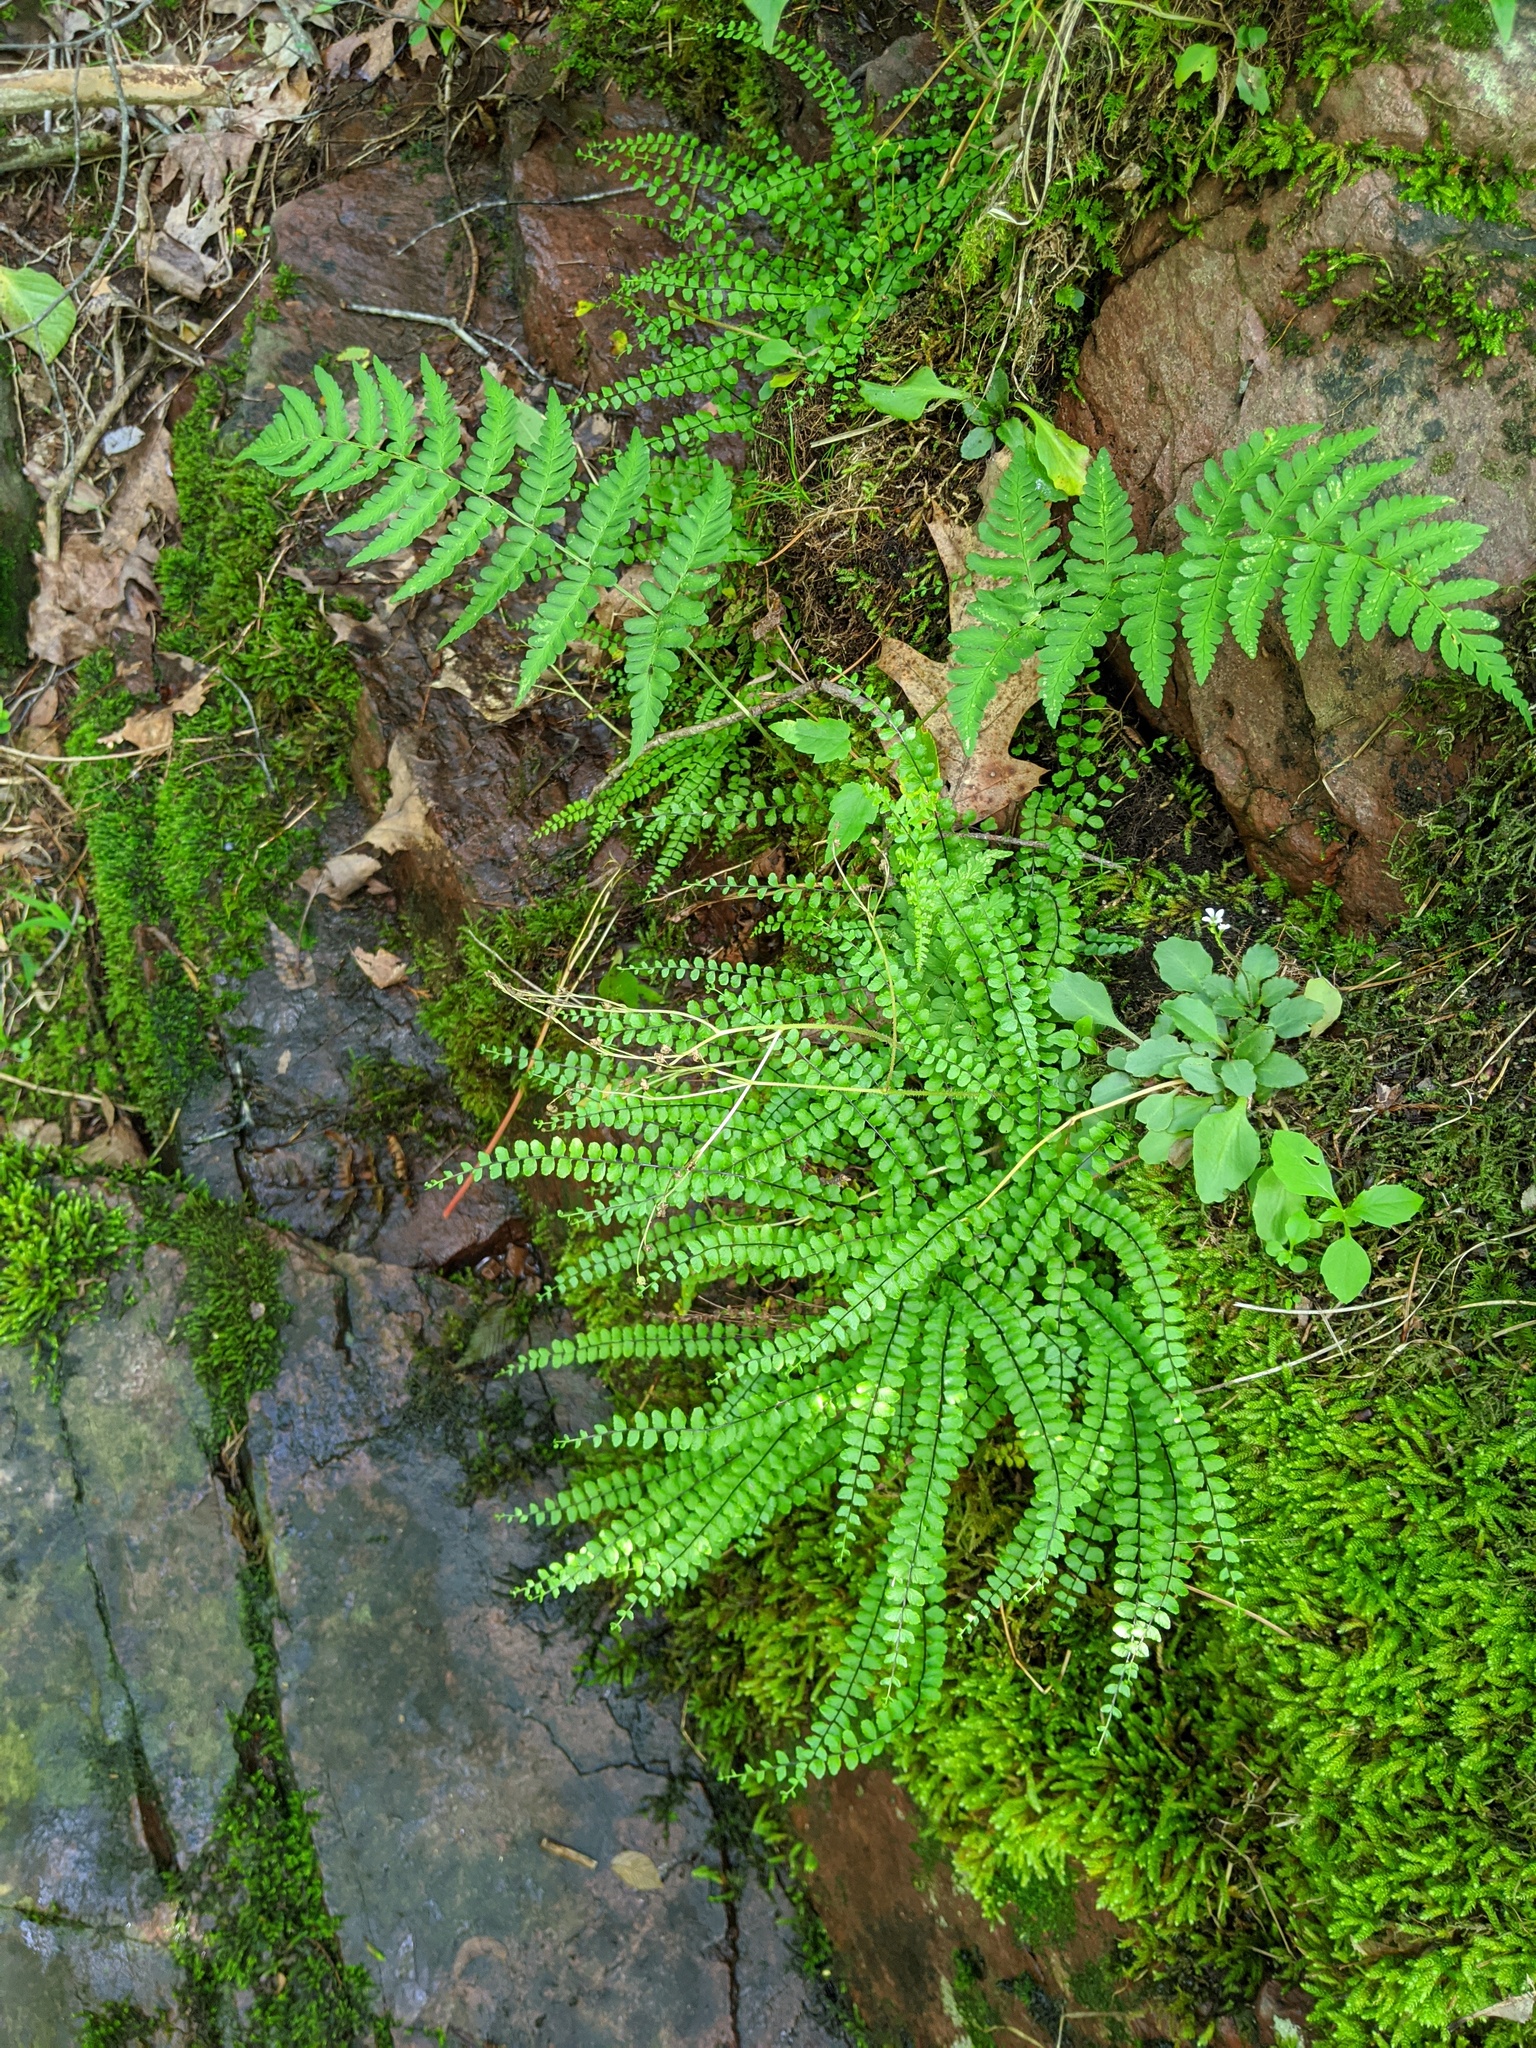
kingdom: Plantae
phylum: Tracheophyta
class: Polypodiopsida
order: Polypodiales
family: Aspleniaceae
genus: Asplenium
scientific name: Asplenium trichomanes
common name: Maidenhair spleenwort
